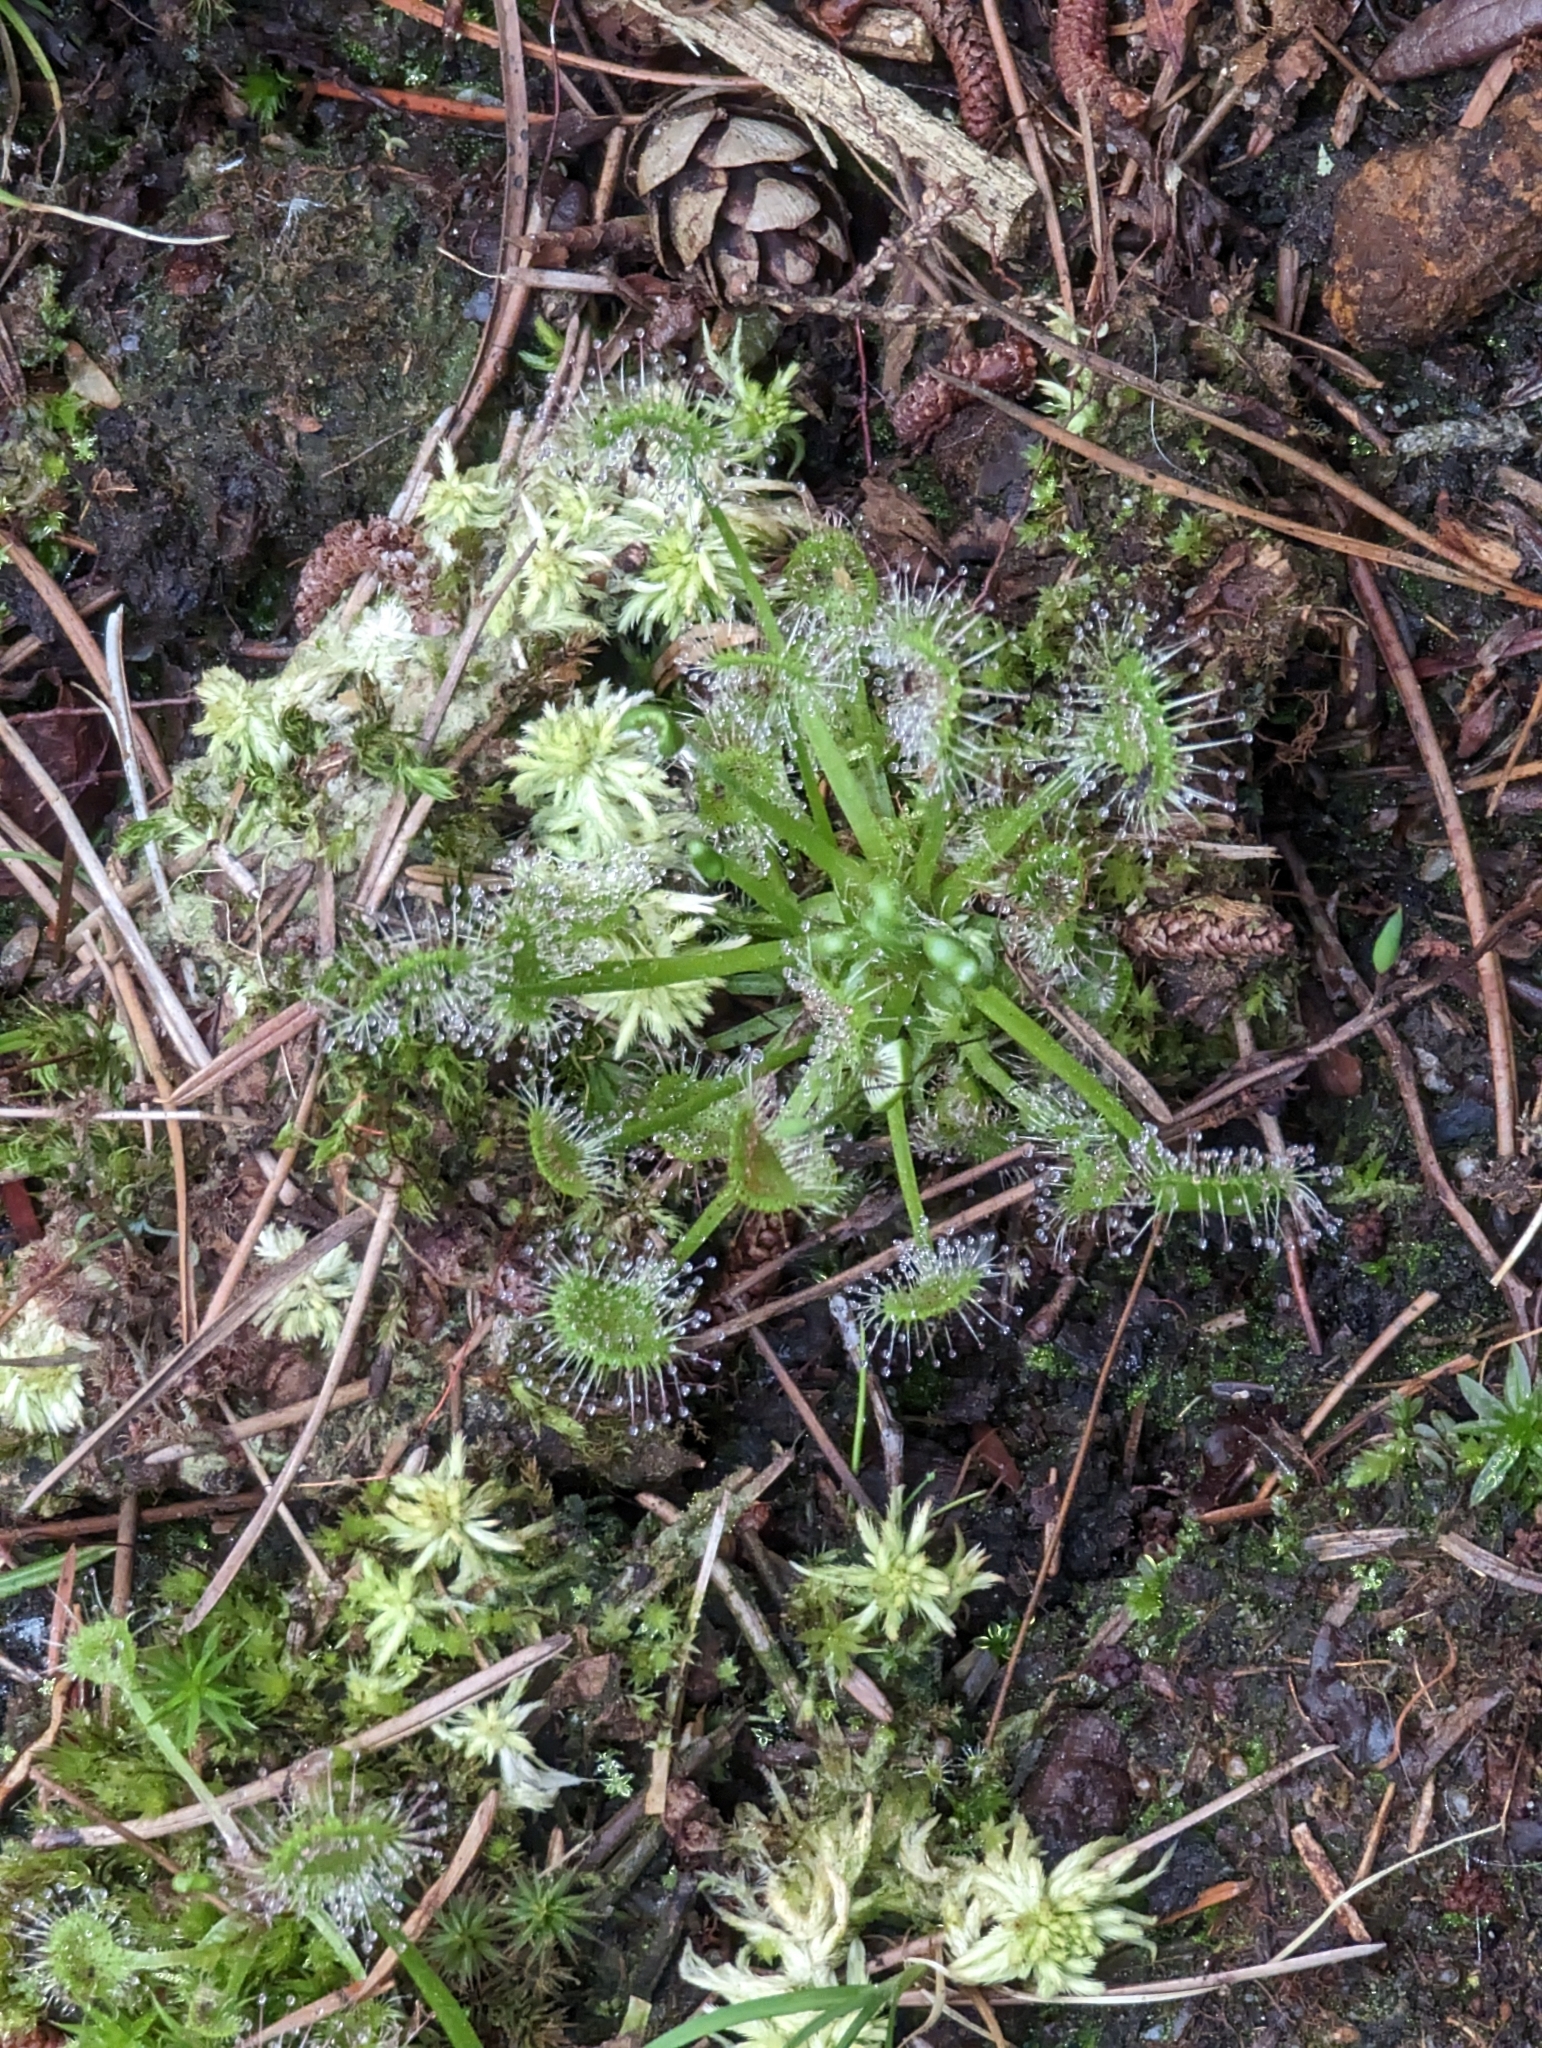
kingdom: Plantae
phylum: Tracheophyta
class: Magnoliopsida
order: Caryophyllales
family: Droseraceae
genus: Drosera
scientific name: Drosera rotundifolia
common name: Round-leaved sundew
